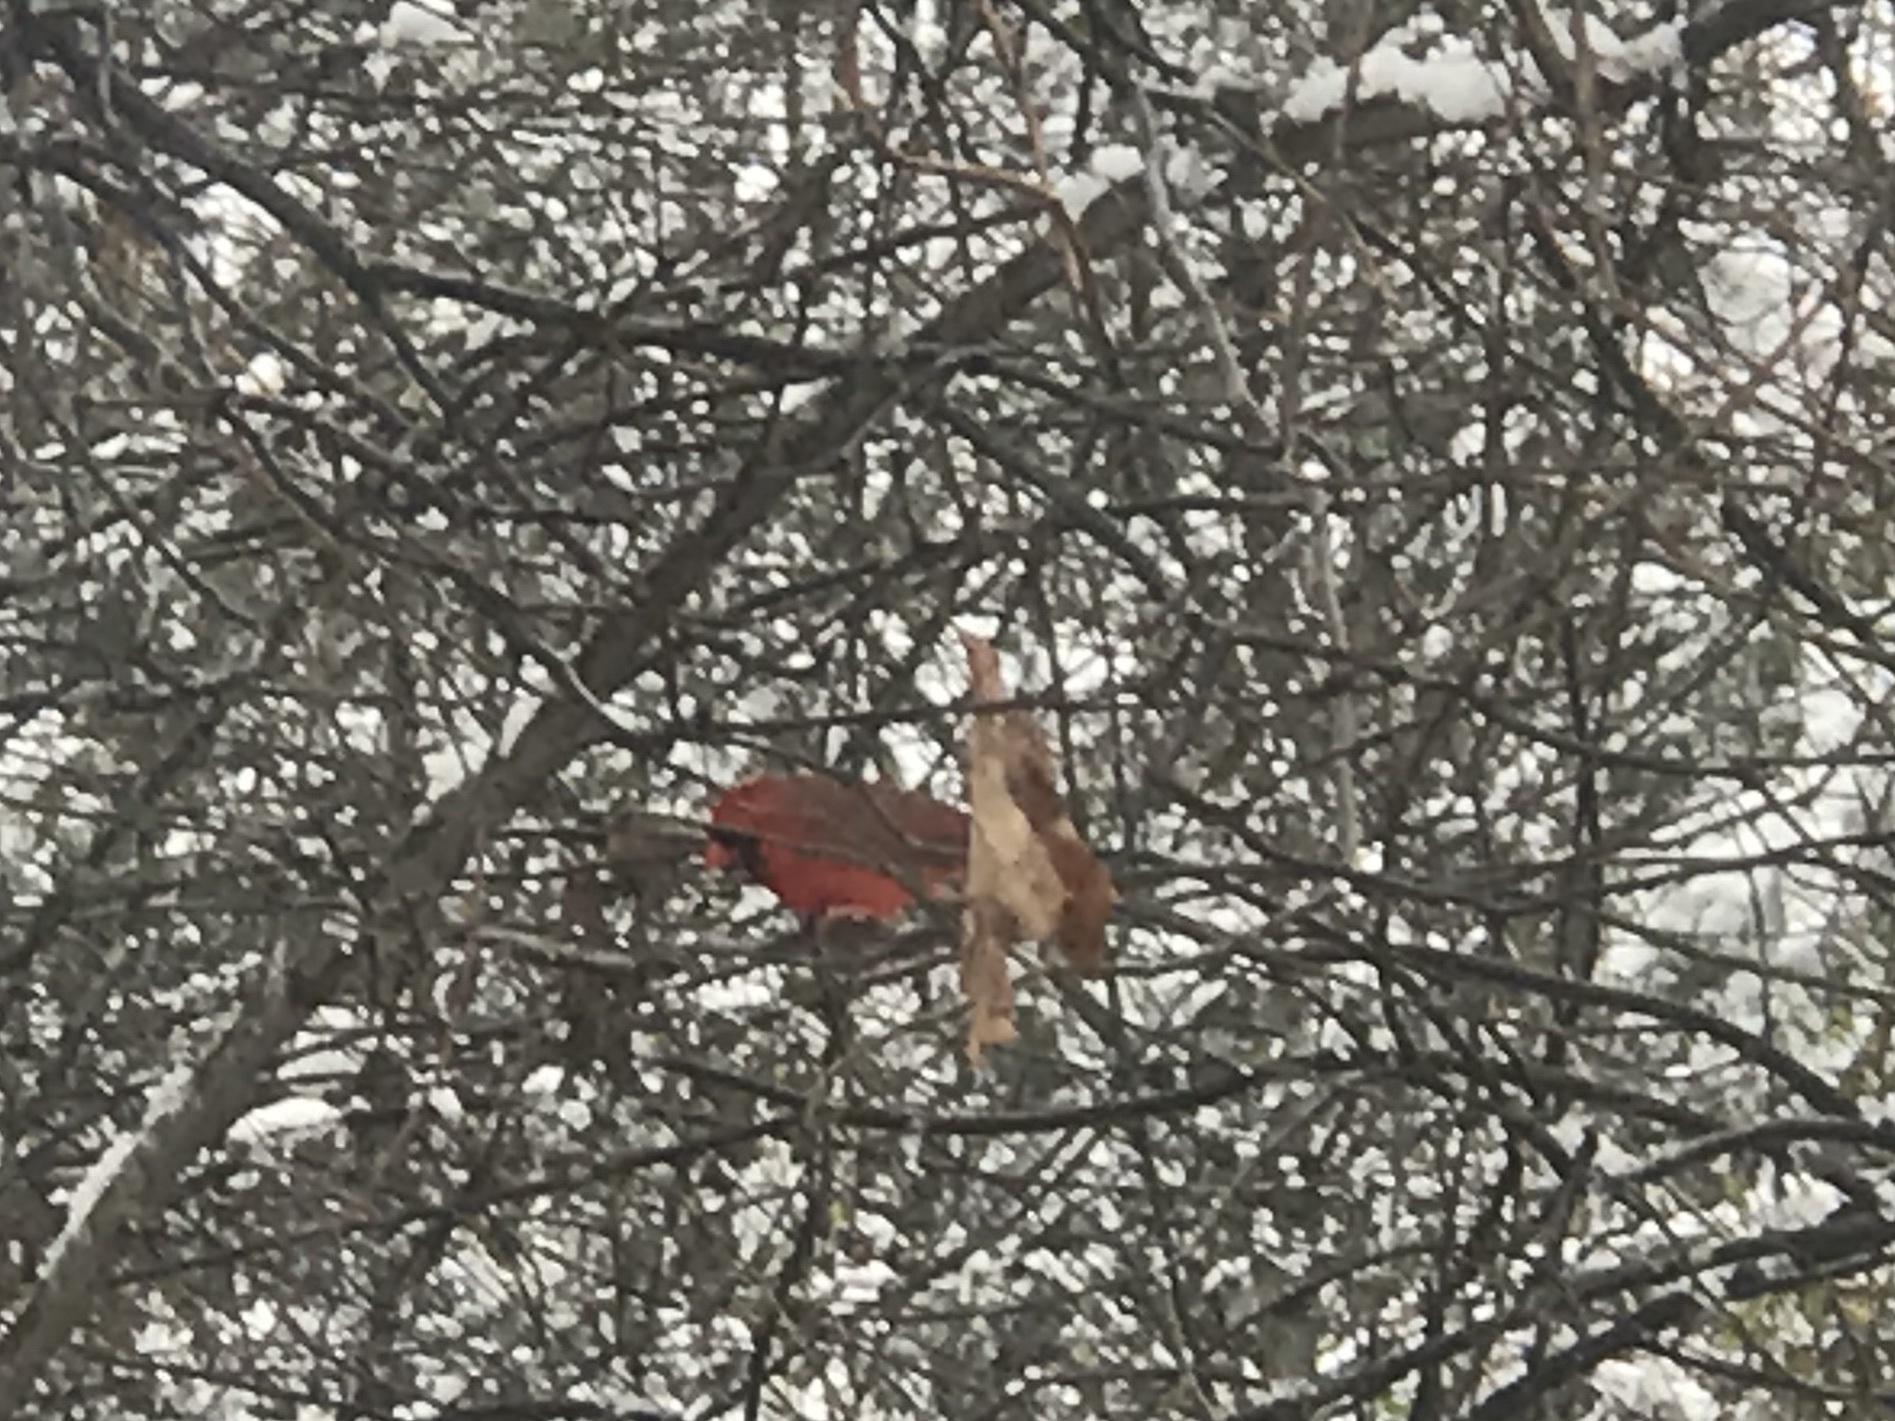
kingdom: Animalia
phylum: Chordata
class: Aves
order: Passeriformes
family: Cardinalidae
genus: Cardinalis
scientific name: Cardinalis cardinalis
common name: Northern cardinal
